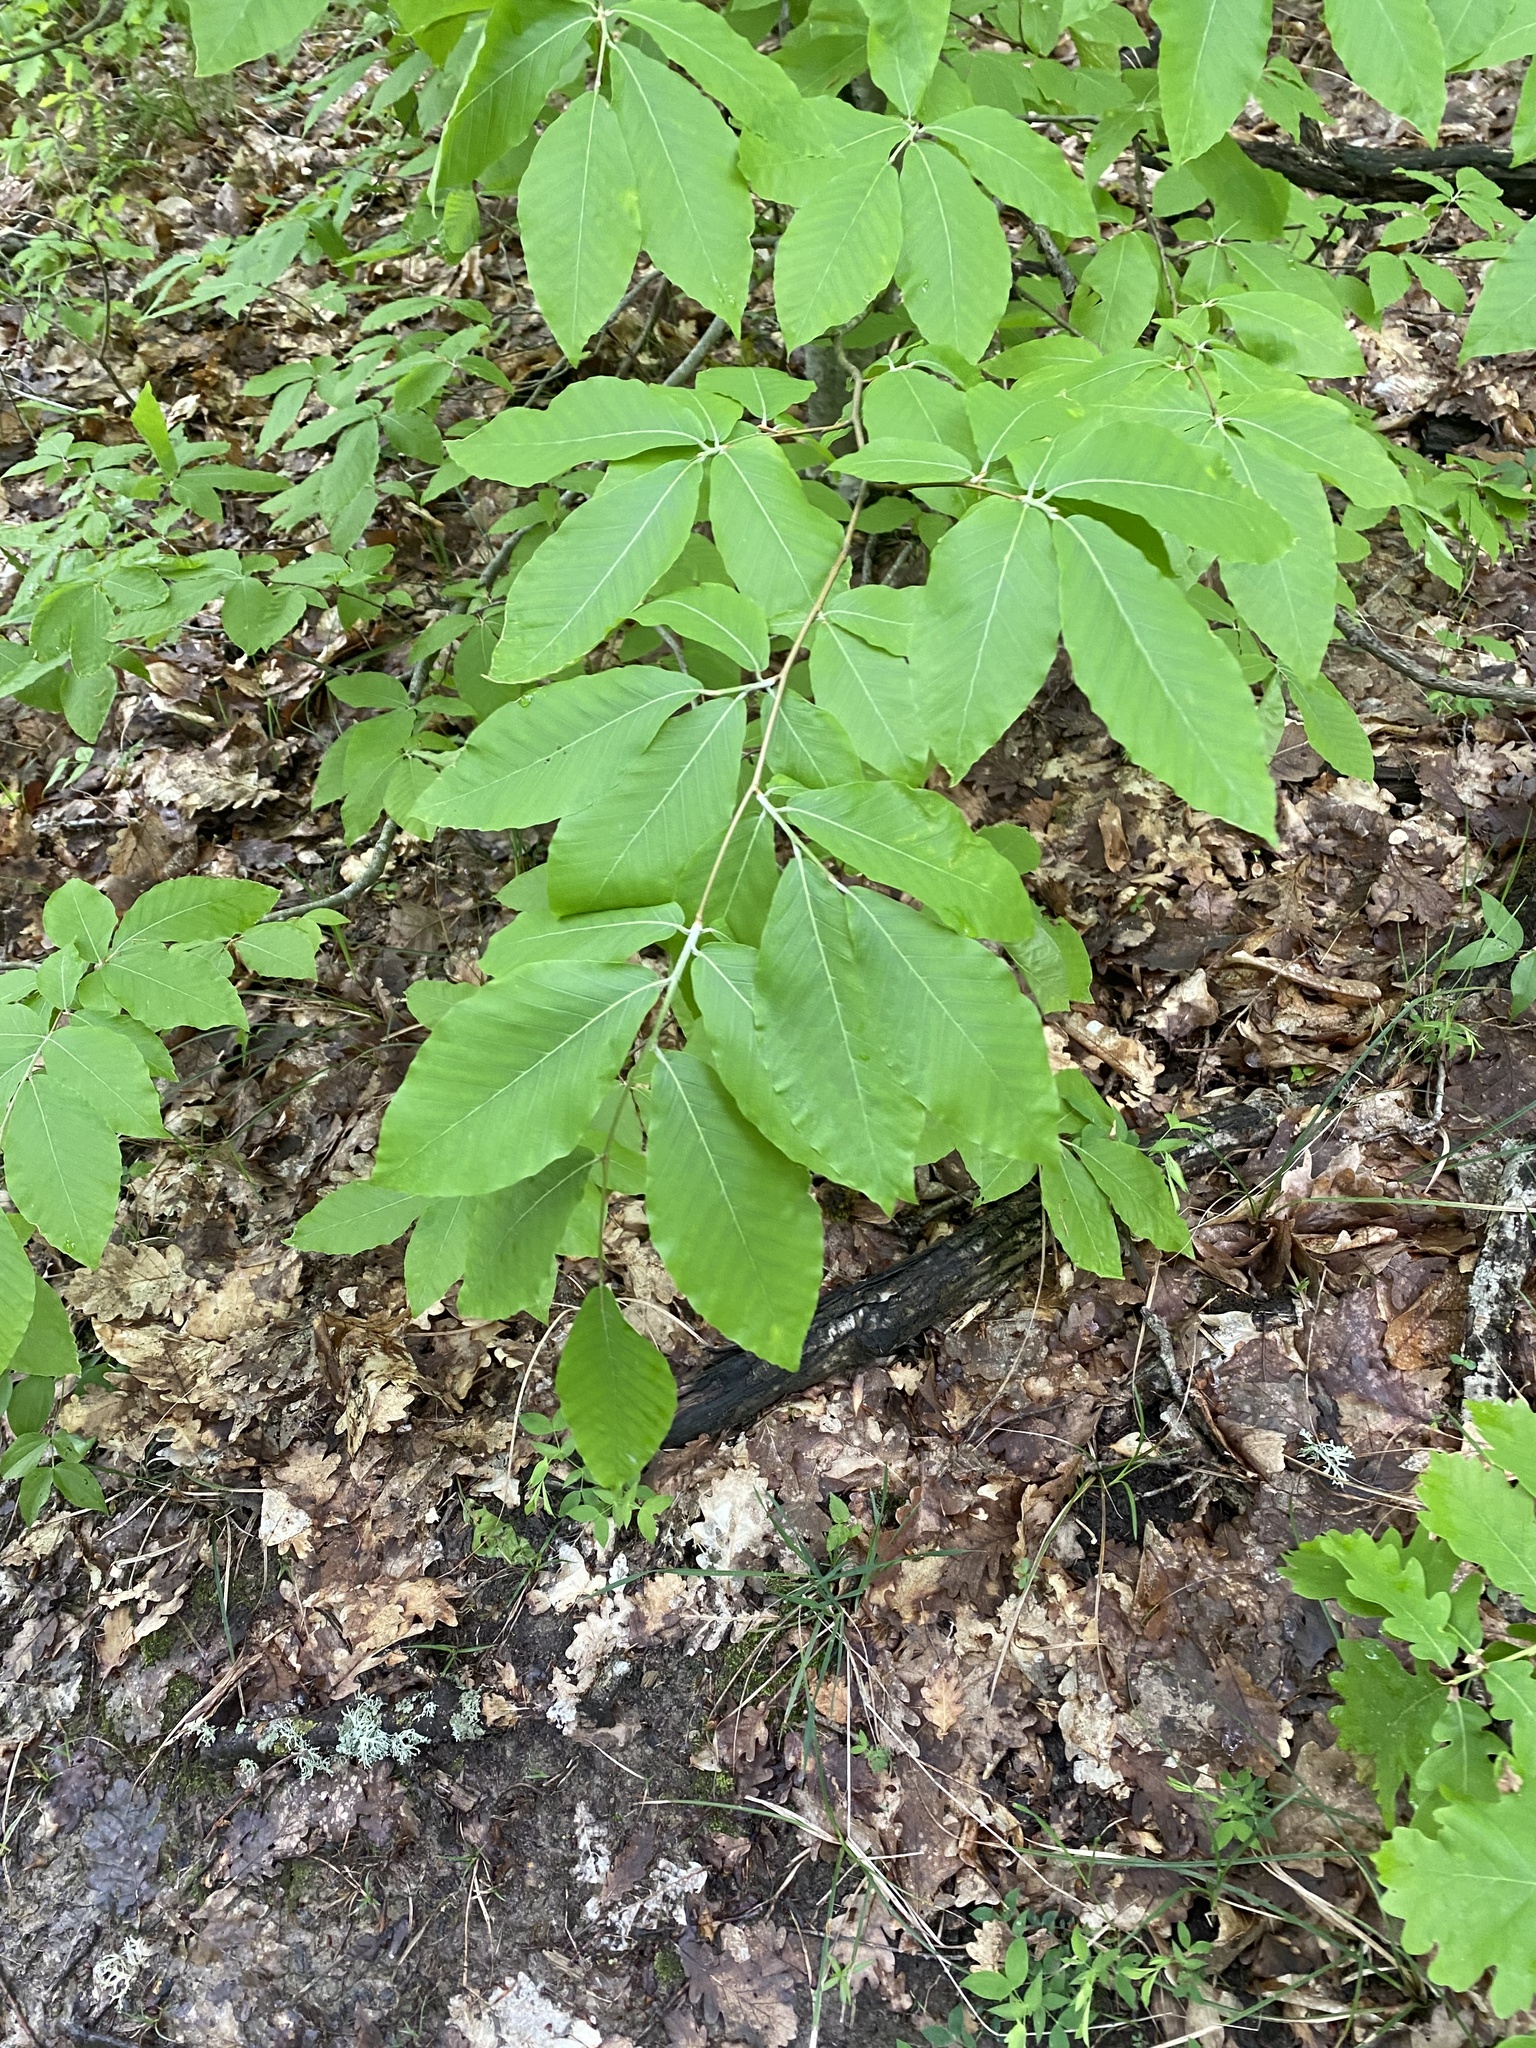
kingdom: Plantae
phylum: Tracheophyta
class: Magnoliopsida
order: Fagales
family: Fagaceae
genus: Fagus
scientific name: Fagus orientalis
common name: Oriental beech
